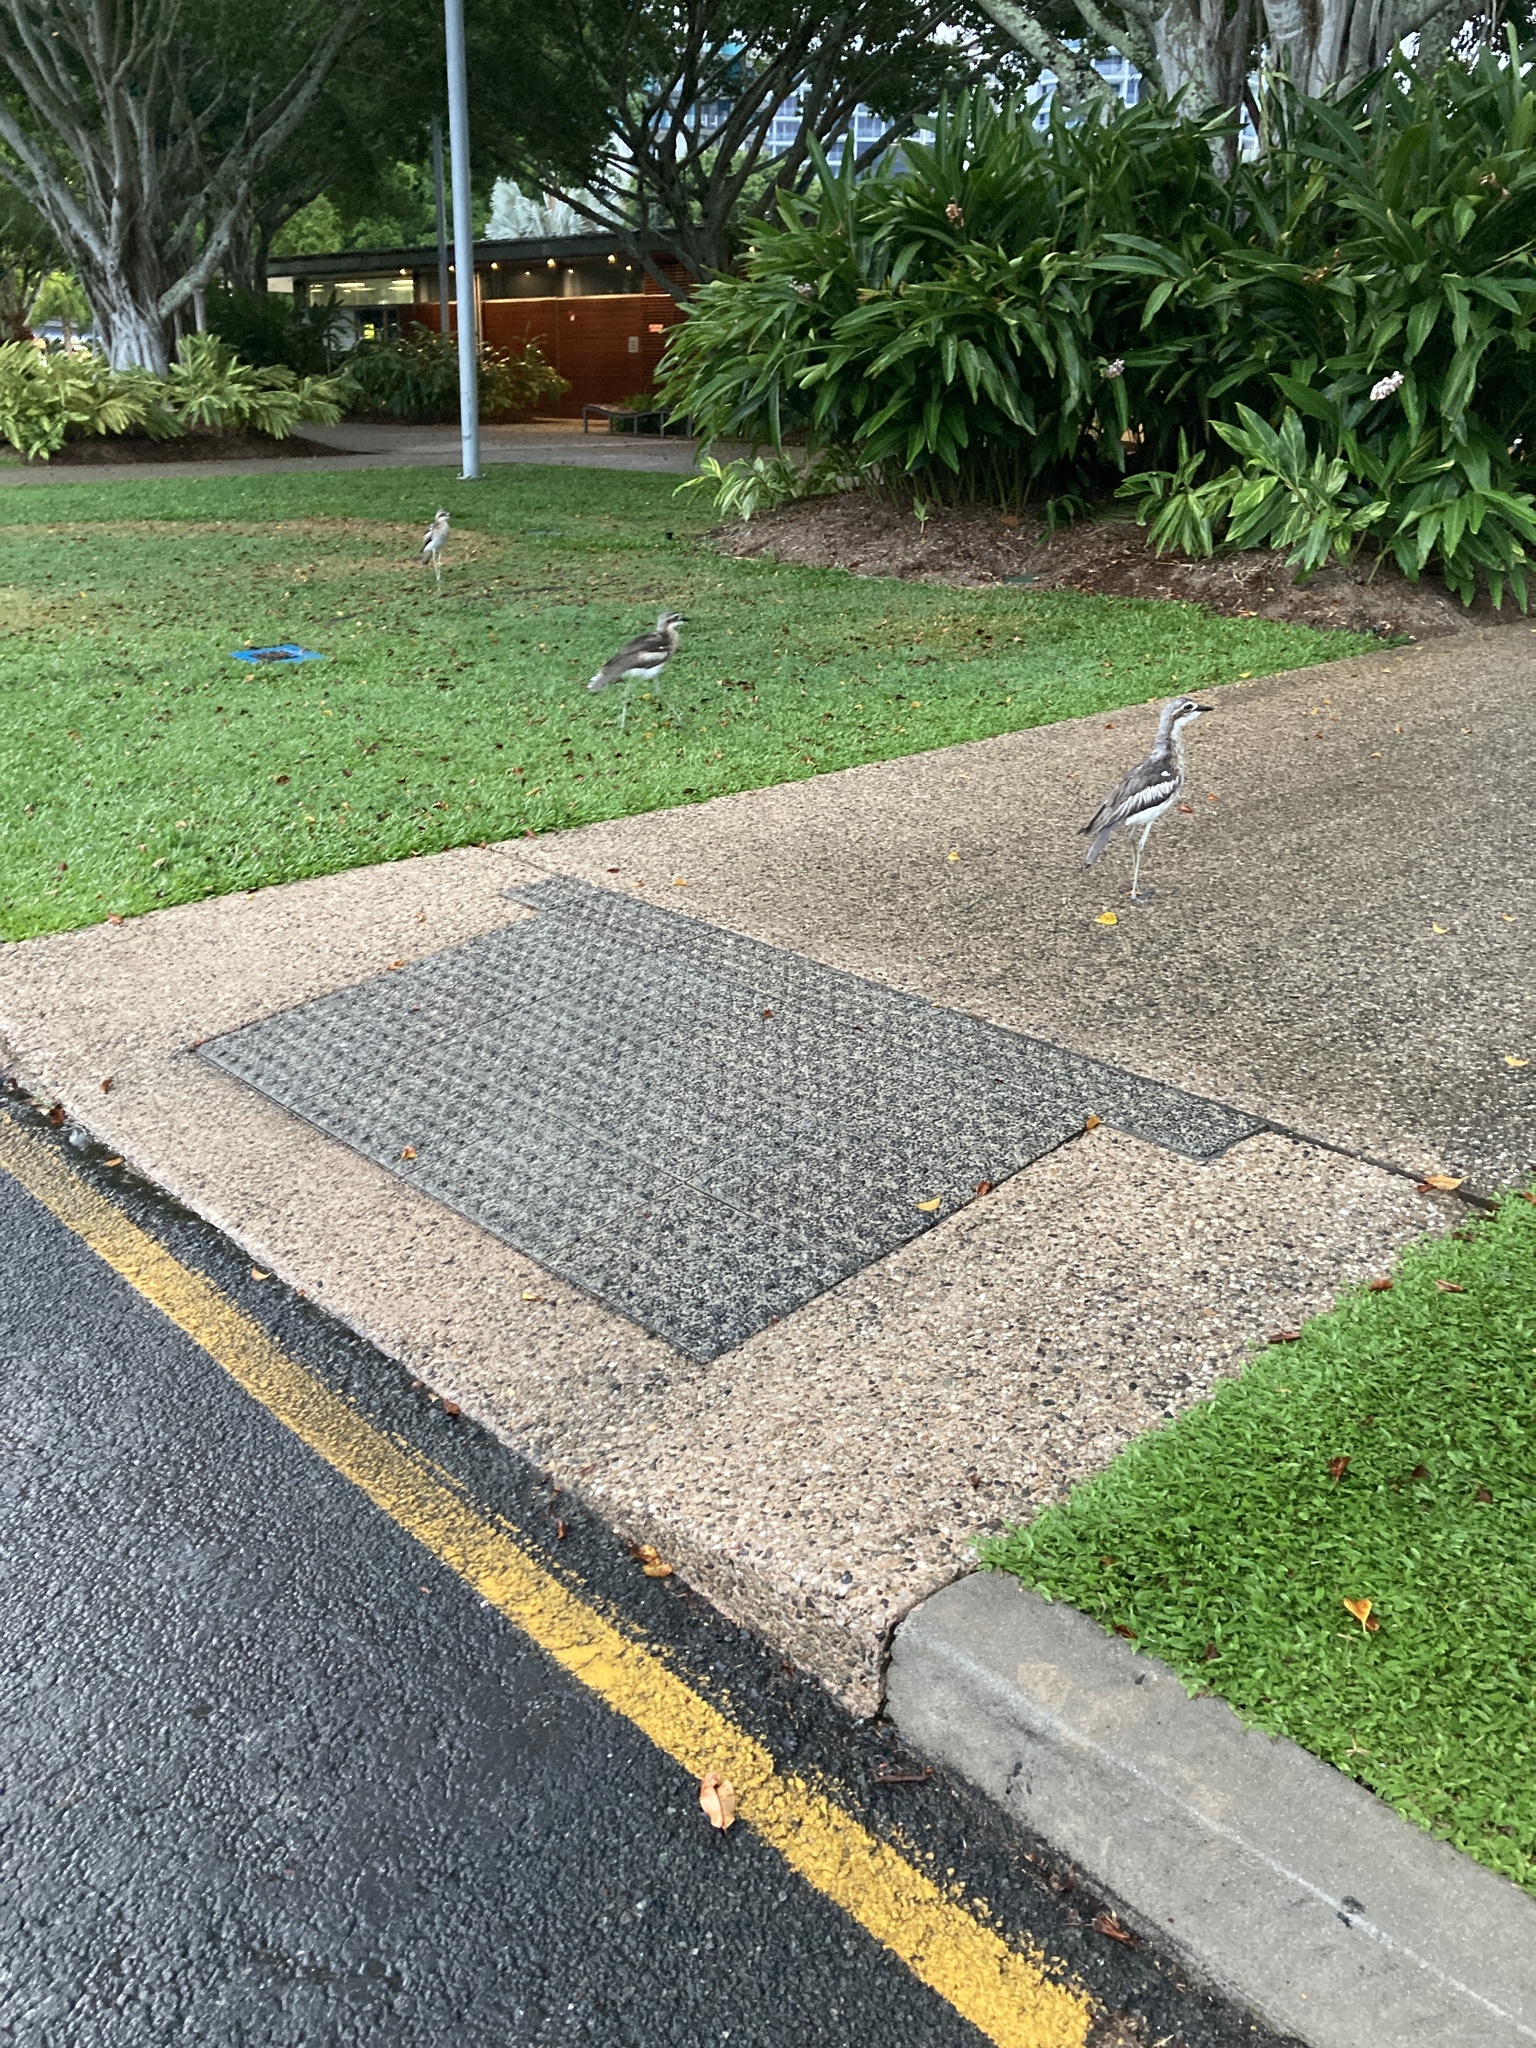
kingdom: Animalia
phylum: Chordata
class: Aves
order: Charadriiformes
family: Burhinidae
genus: Burhinus
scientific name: Burhinus grallarius
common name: Bush stone-curlew
